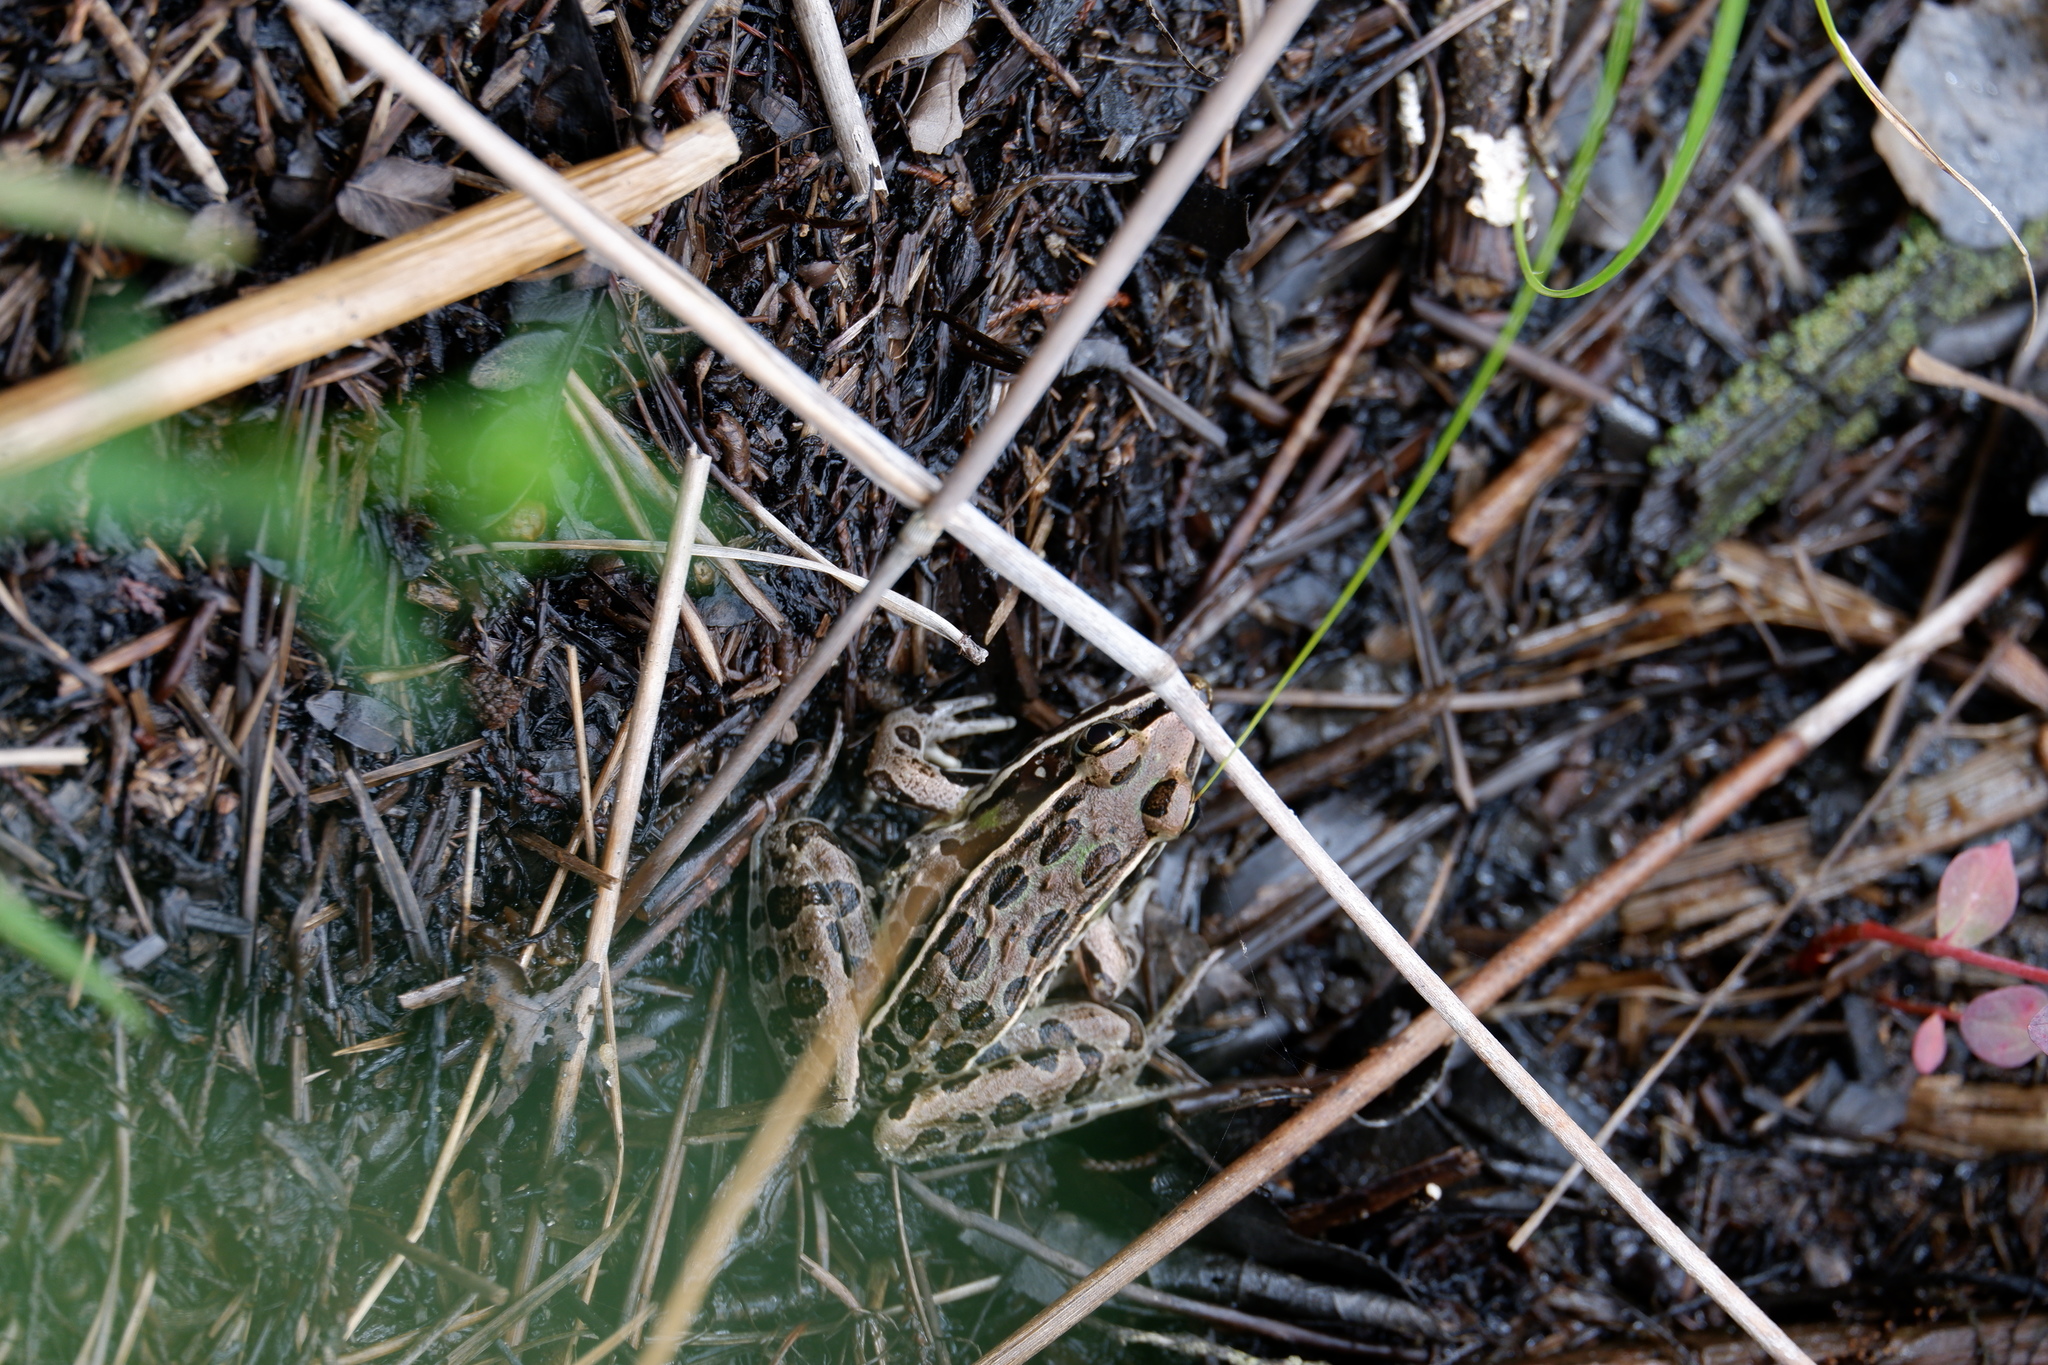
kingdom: Animalia
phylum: Chordata
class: Amphibia
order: Anura
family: Ranidae
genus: Lithobates
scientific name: Lithobates sphenocephalus
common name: Southern leopard frog
